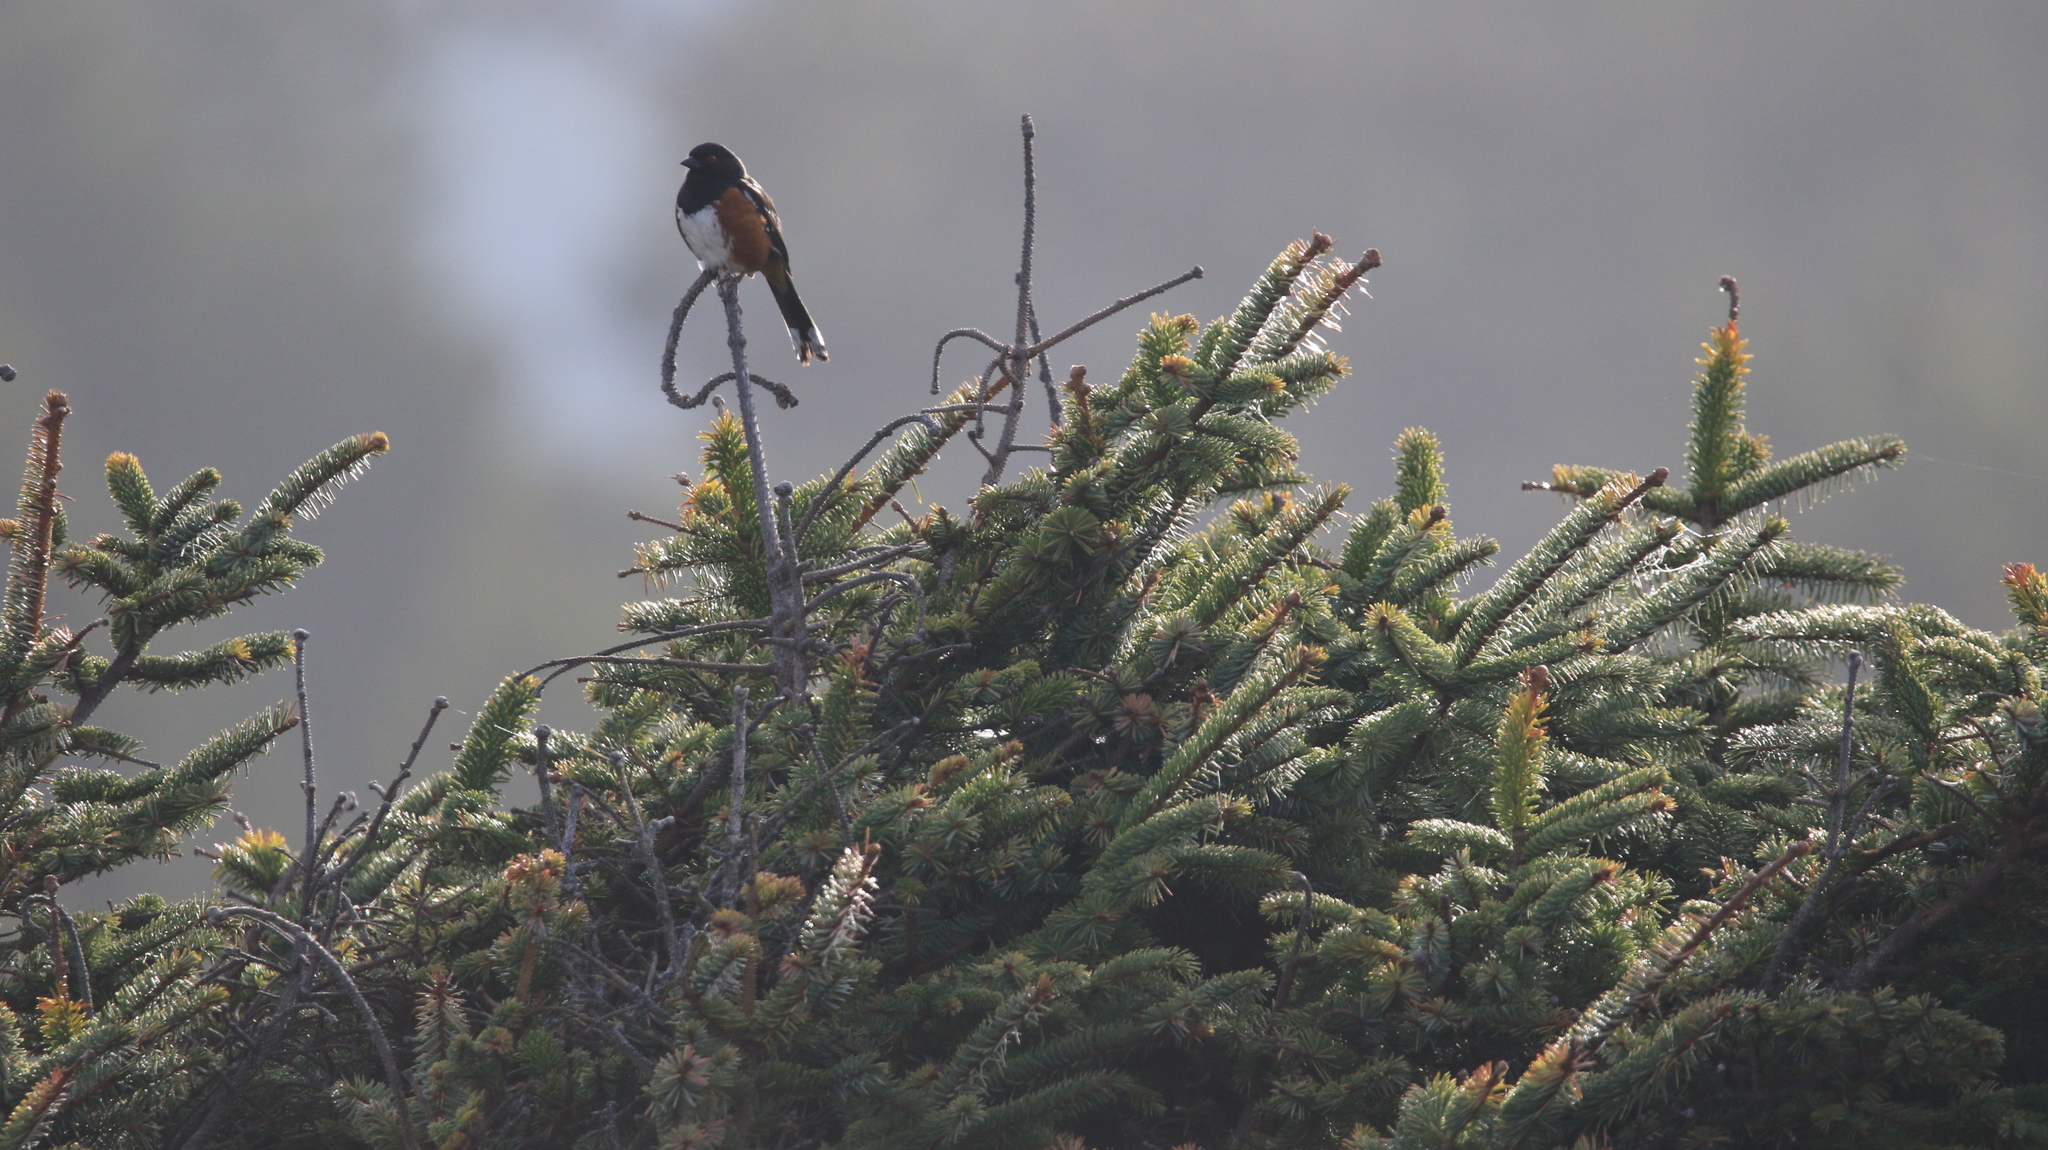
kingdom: Animalia
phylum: Chordata
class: Aves
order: Passeriformes
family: Passerellidae
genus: Pipilo
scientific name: Pipilo maculatus
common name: Spotted towhee
